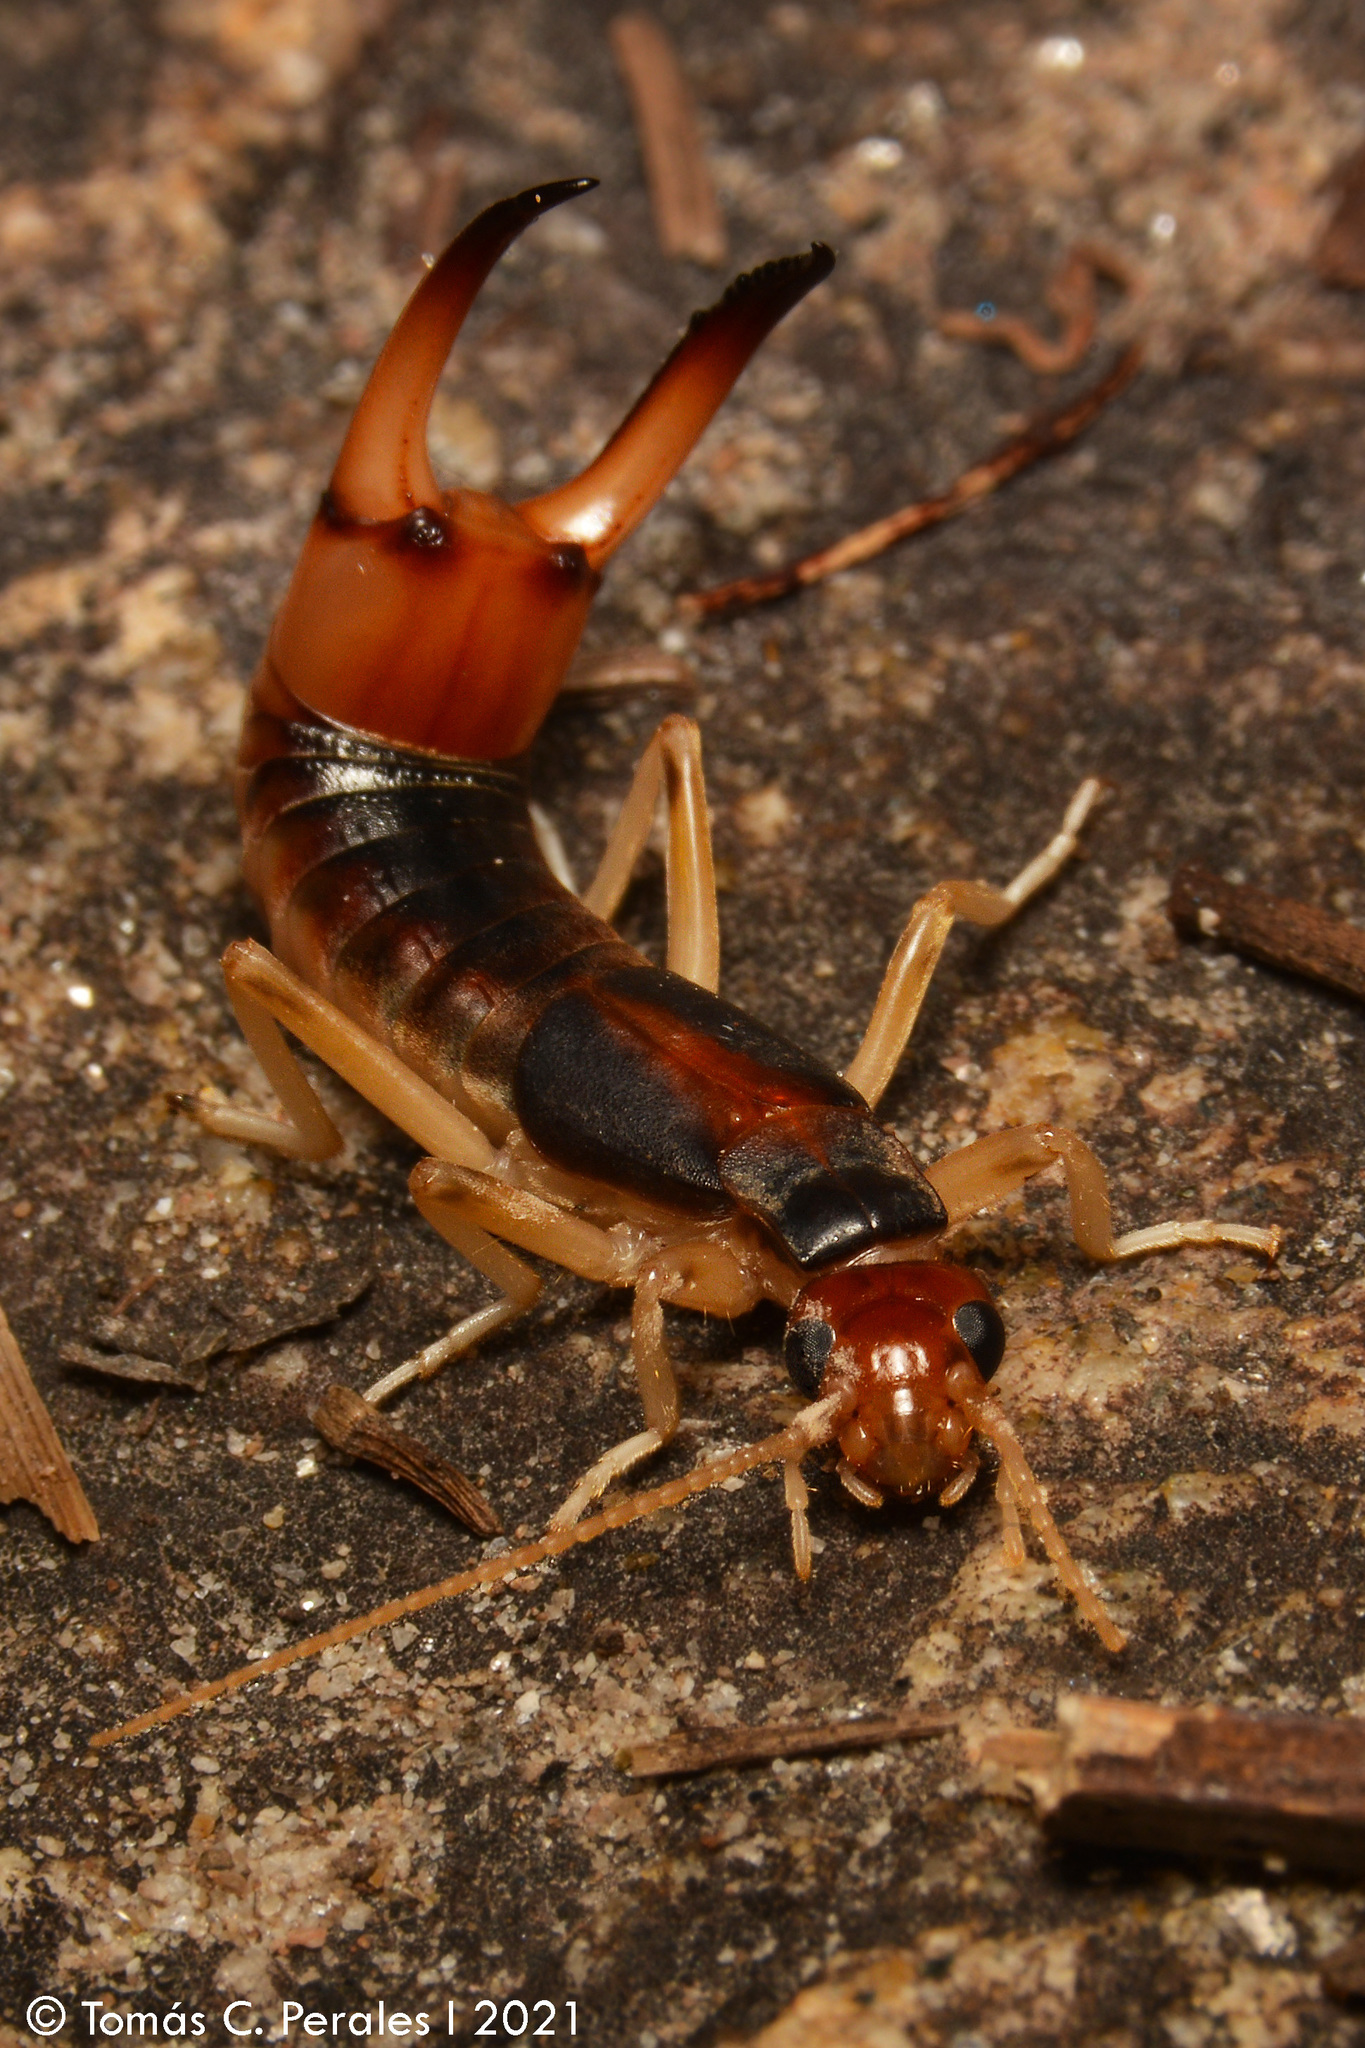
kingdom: Animalia
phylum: Arthropoda
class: Insecta
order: Dermaptera
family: Labiduridae
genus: Labidura
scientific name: Labidura riparia
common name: Striped earwig
